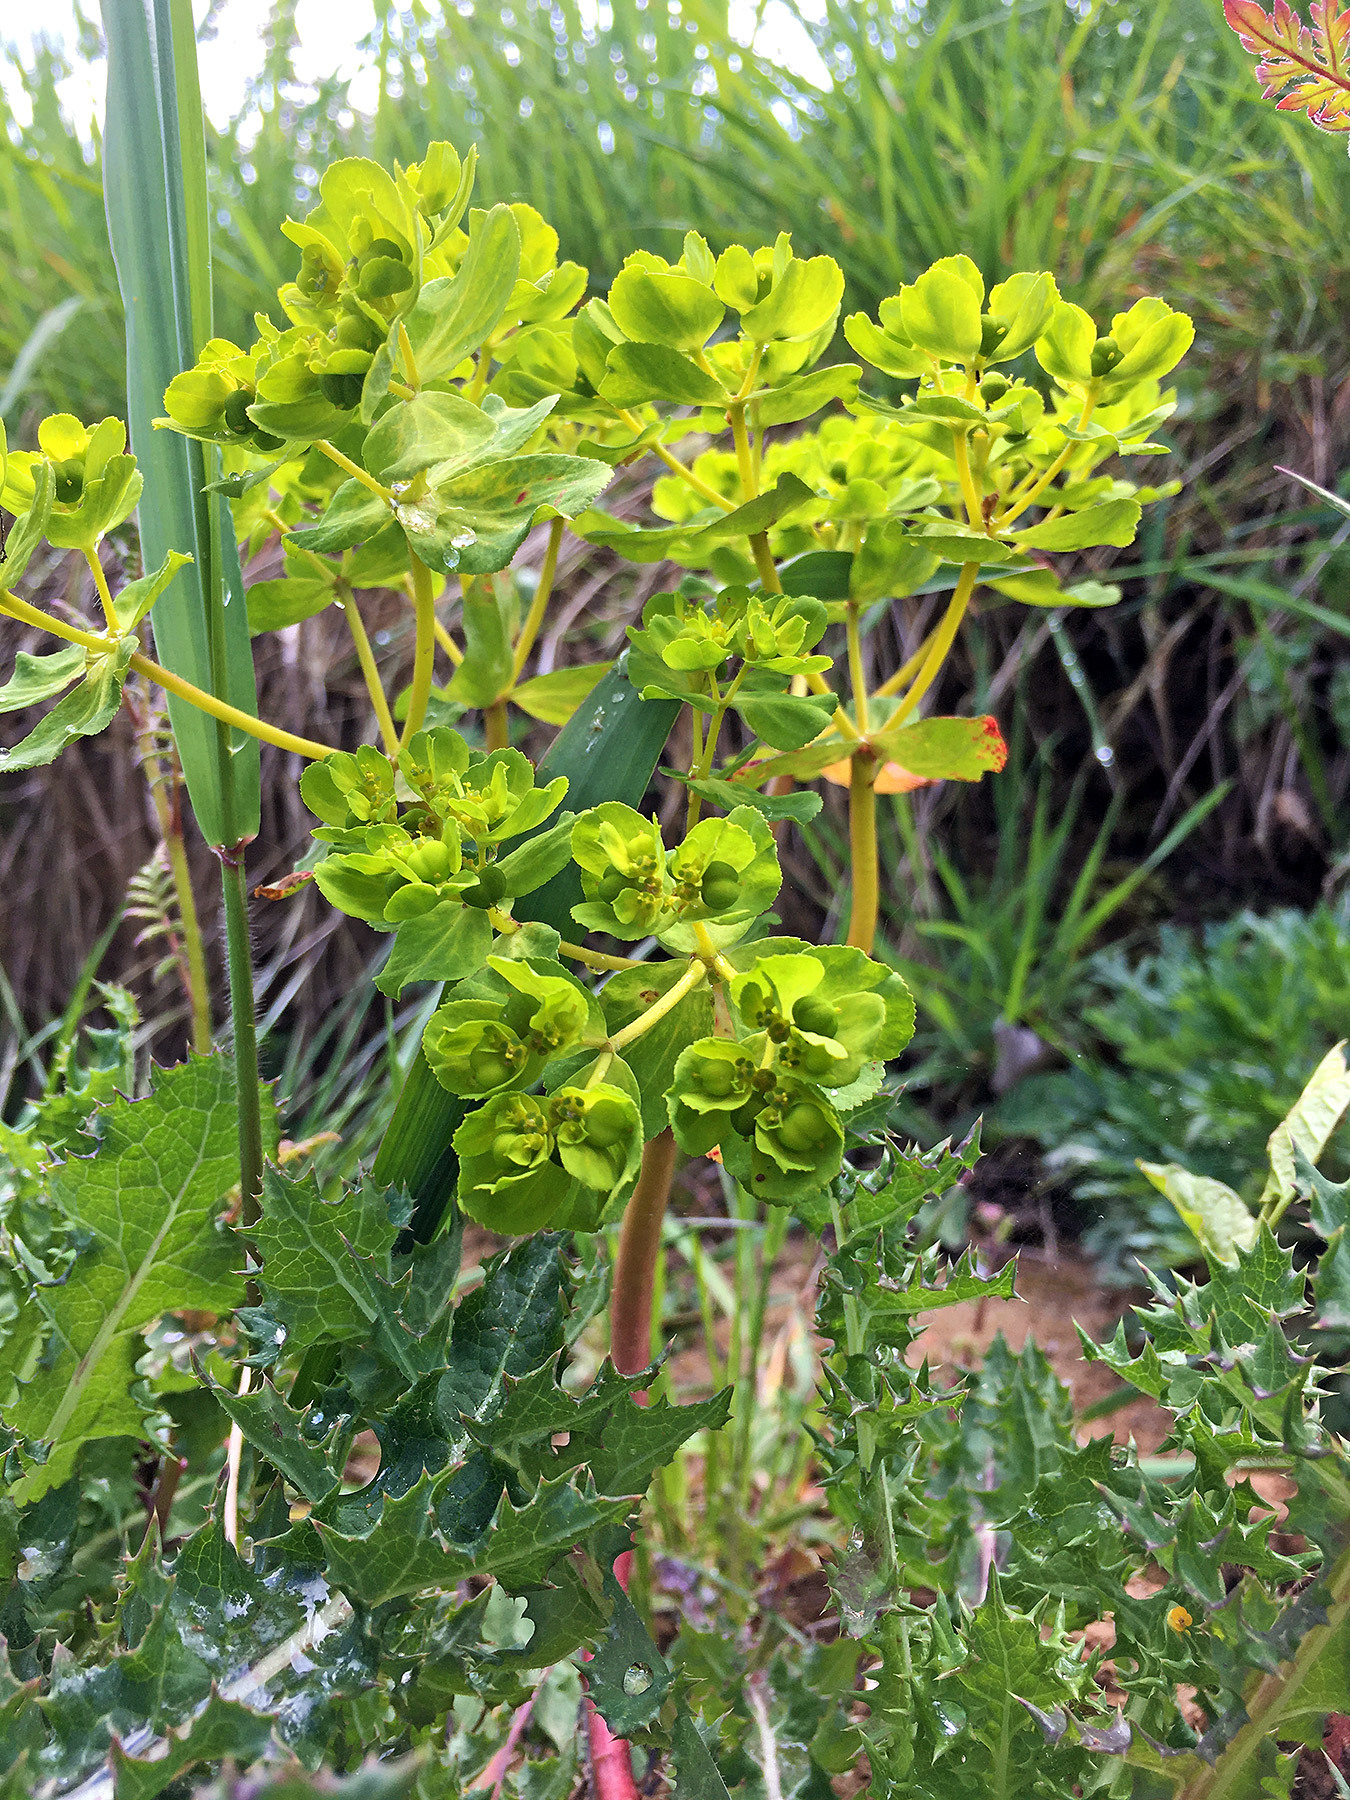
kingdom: Plantae
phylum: Tracheophyta
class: Magnoliopsida
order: Malpighiales
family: Euphorbiaceae
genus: Euphorbia
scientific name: Euphorbia helioscopia
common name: Sun spurge
